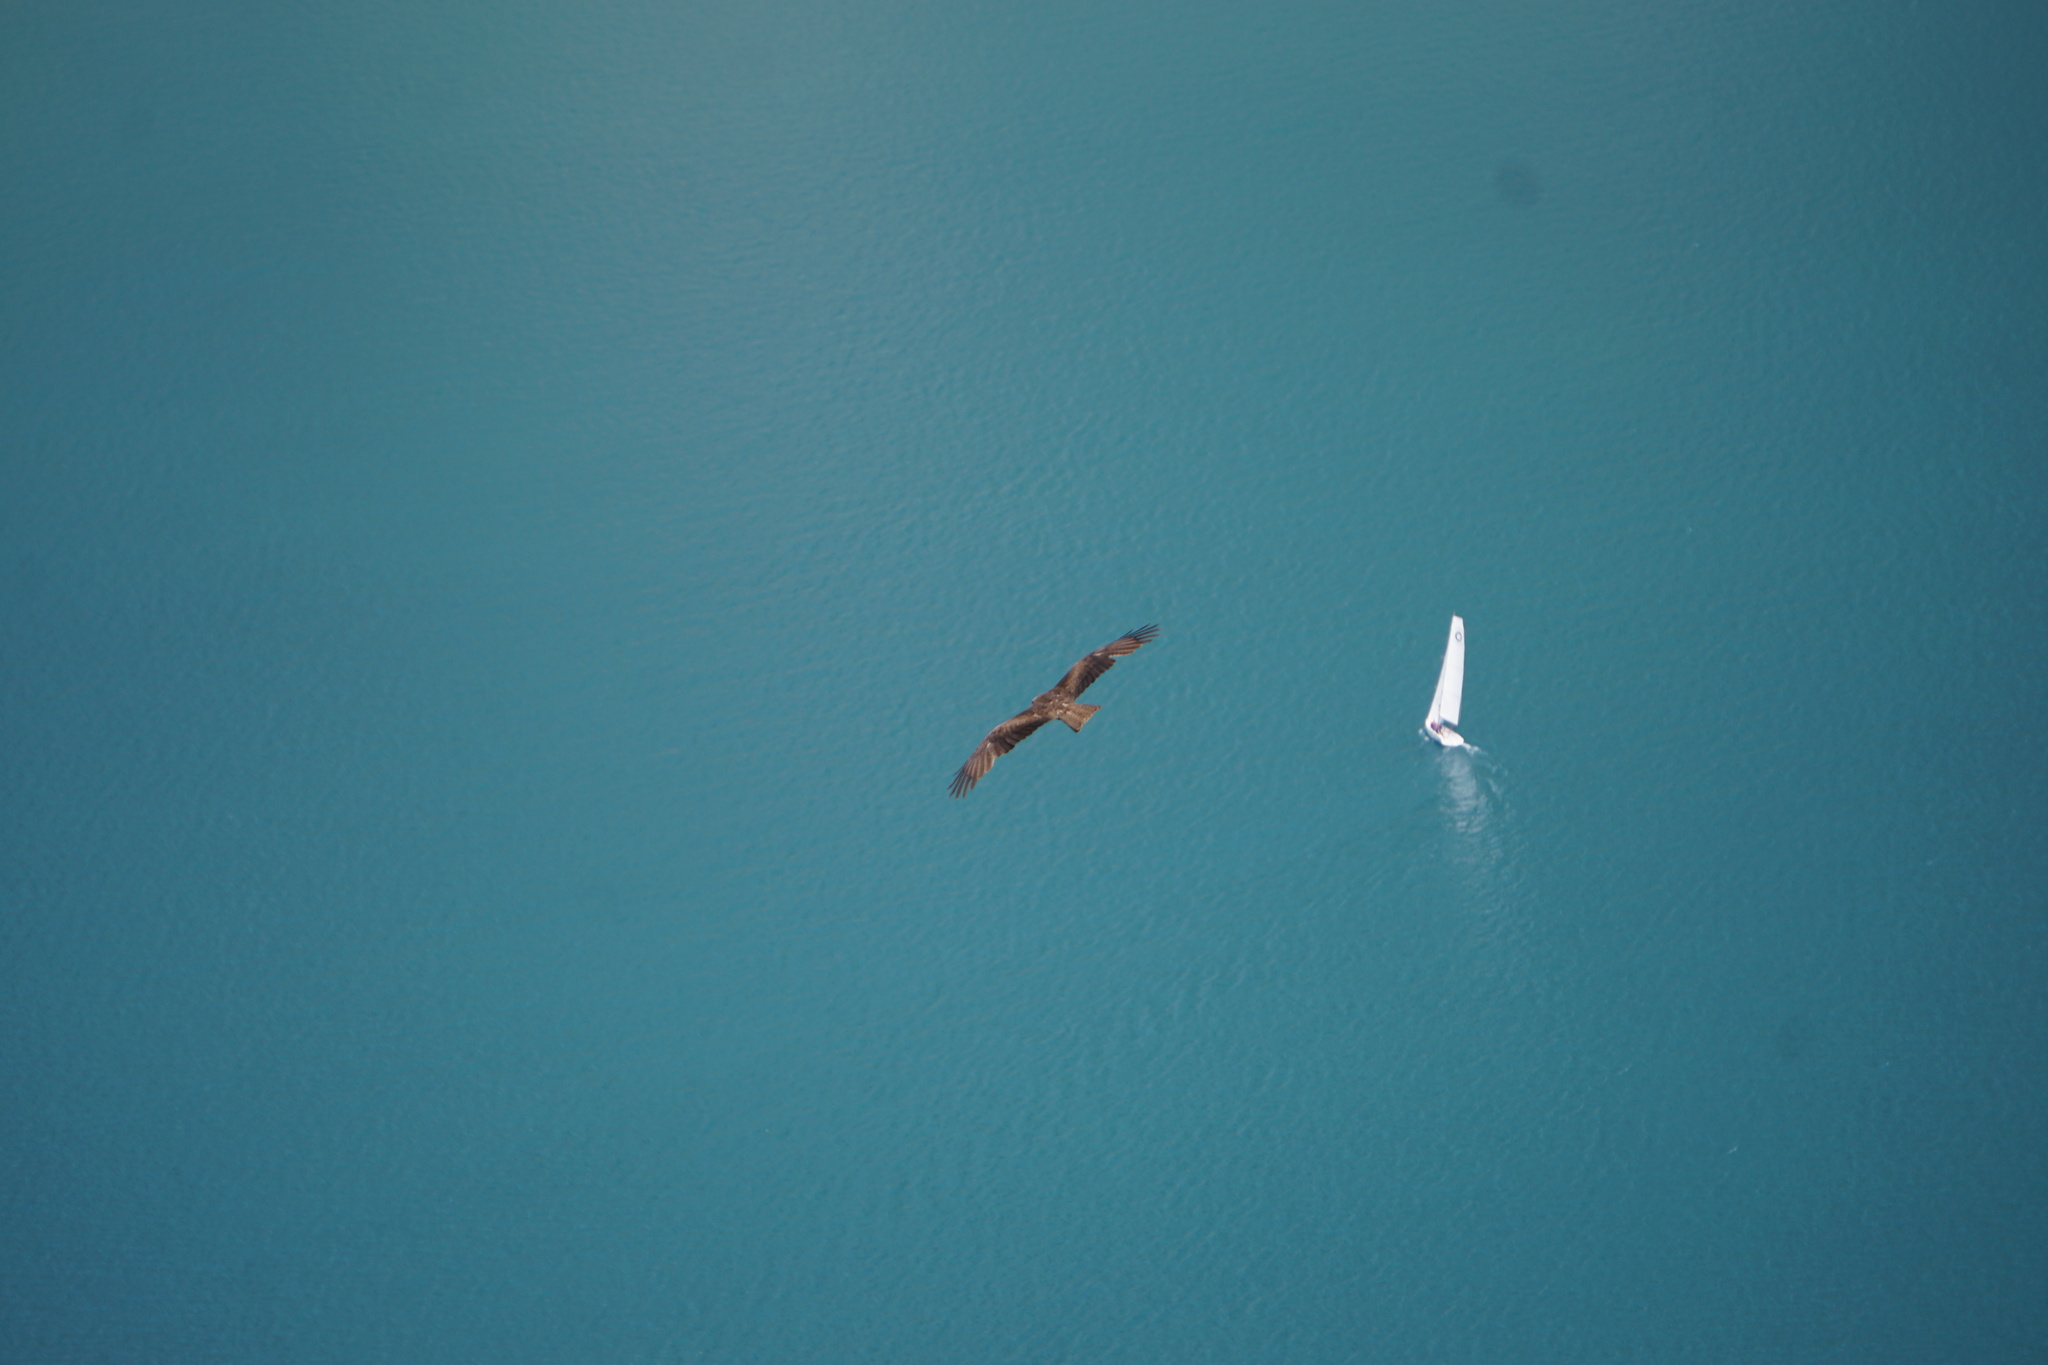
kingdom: Animalia
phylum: Chordata
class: Aves
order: Accipitriformes
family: Accipitridae
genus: Milvus
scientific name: Milvus migrans
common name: Black kite
